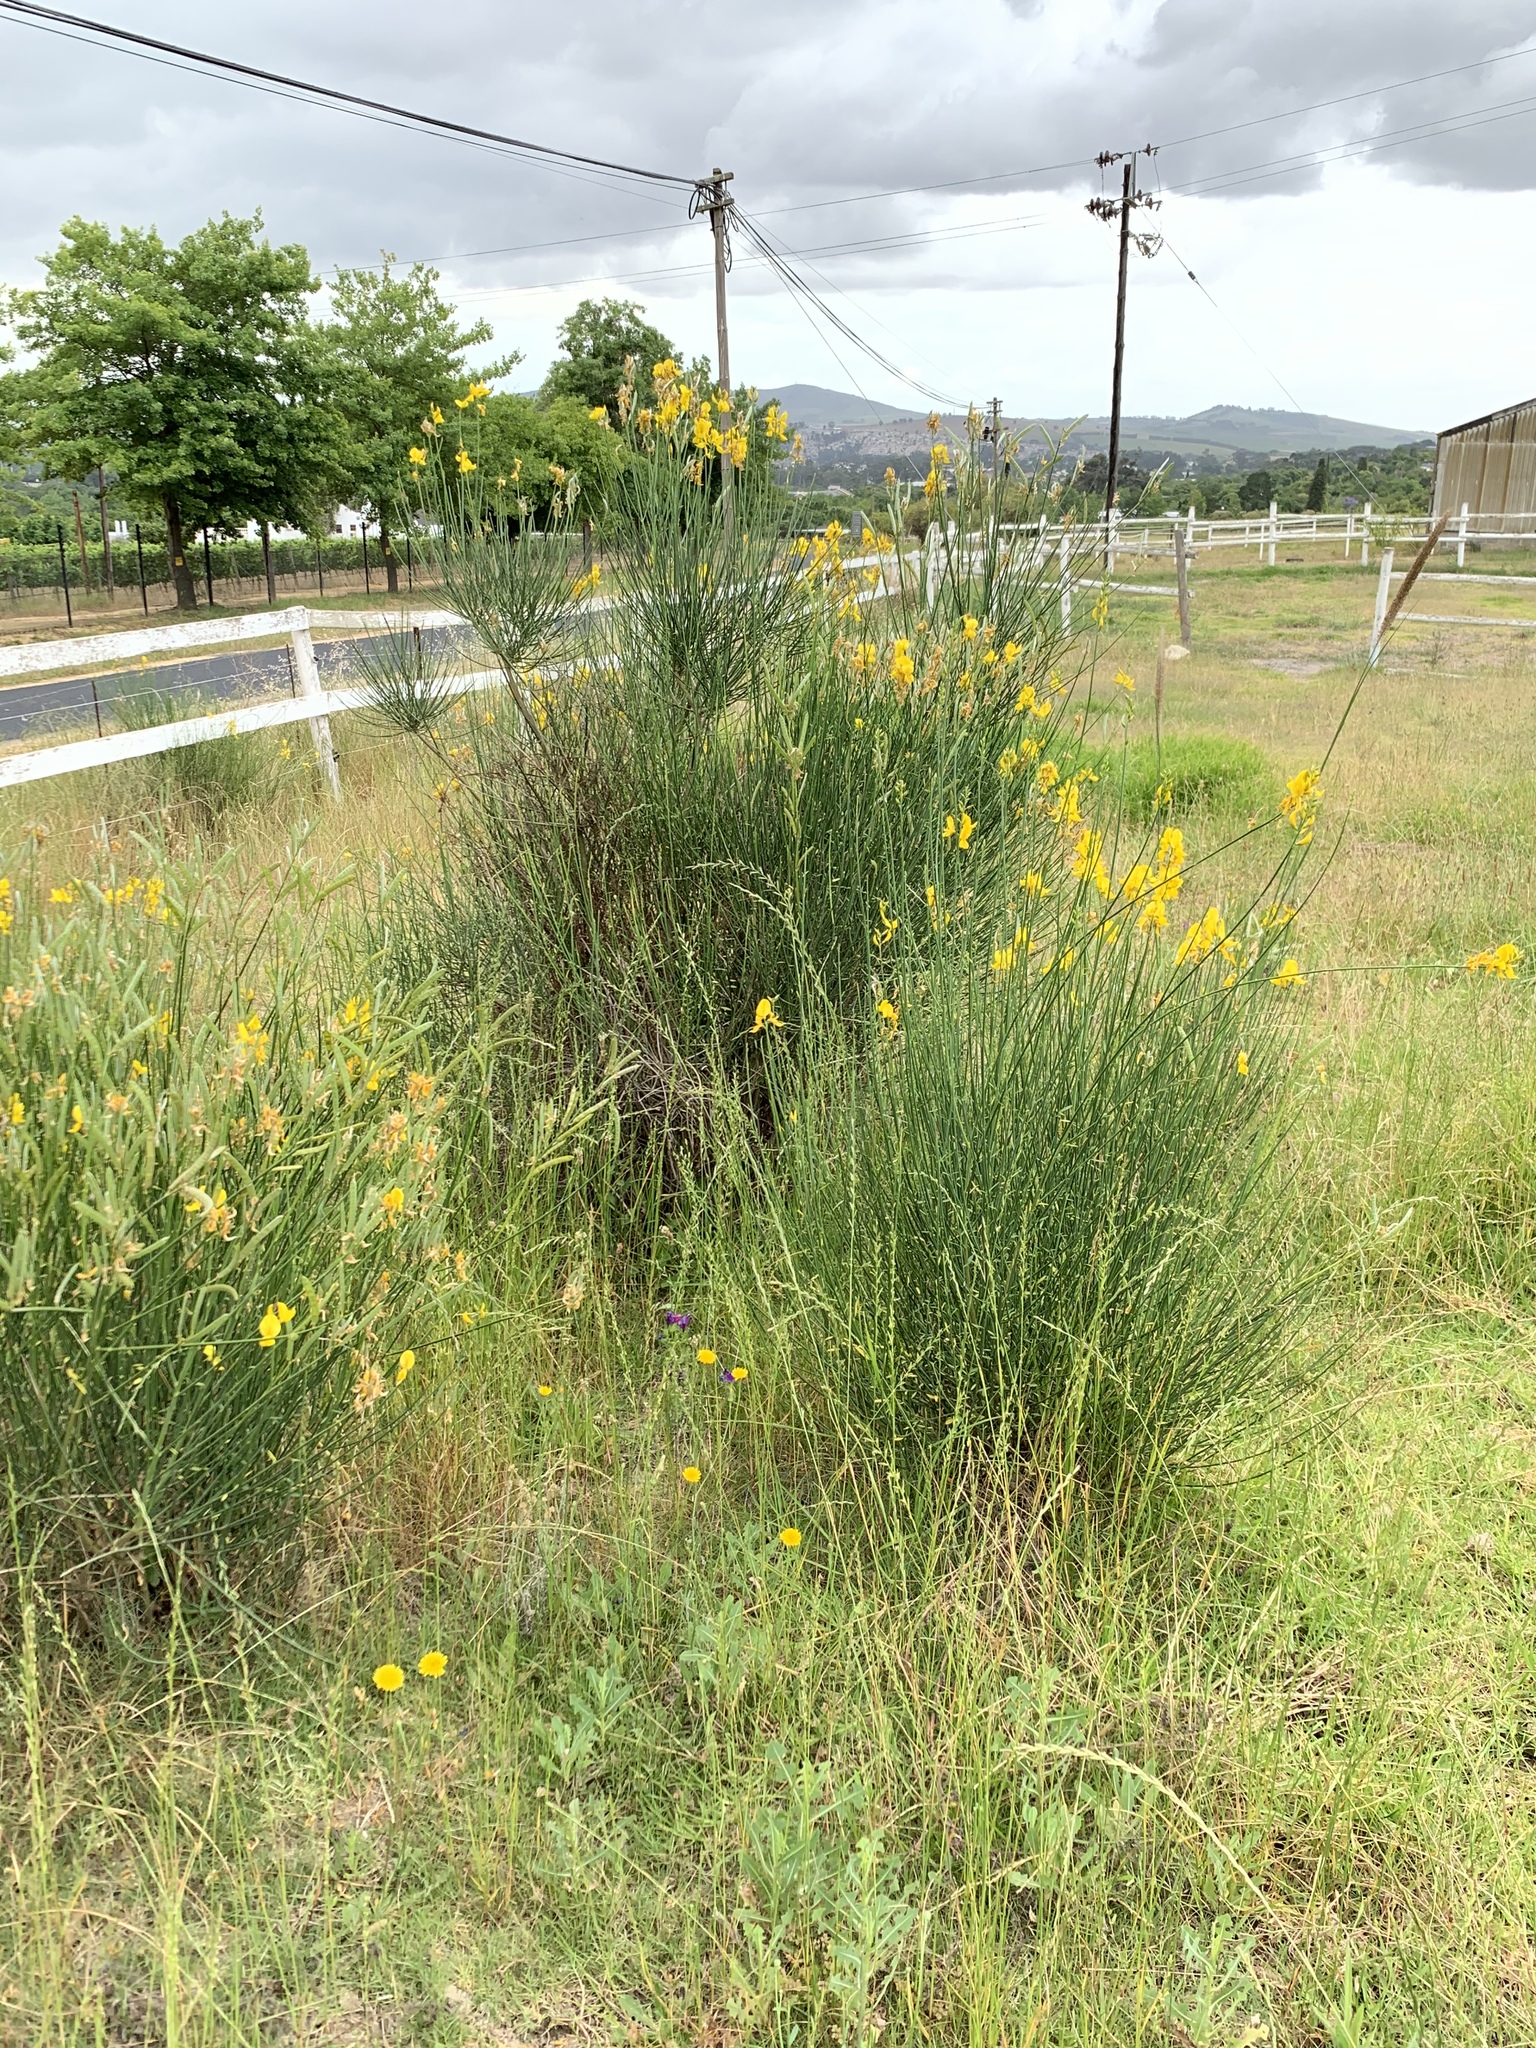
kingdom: Plantae
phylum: Tracheophyta
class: Magnoliopsida
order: Fabales
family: Fabaceae
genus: Spartium
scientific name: Spartium junceum
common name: Spanish broom
